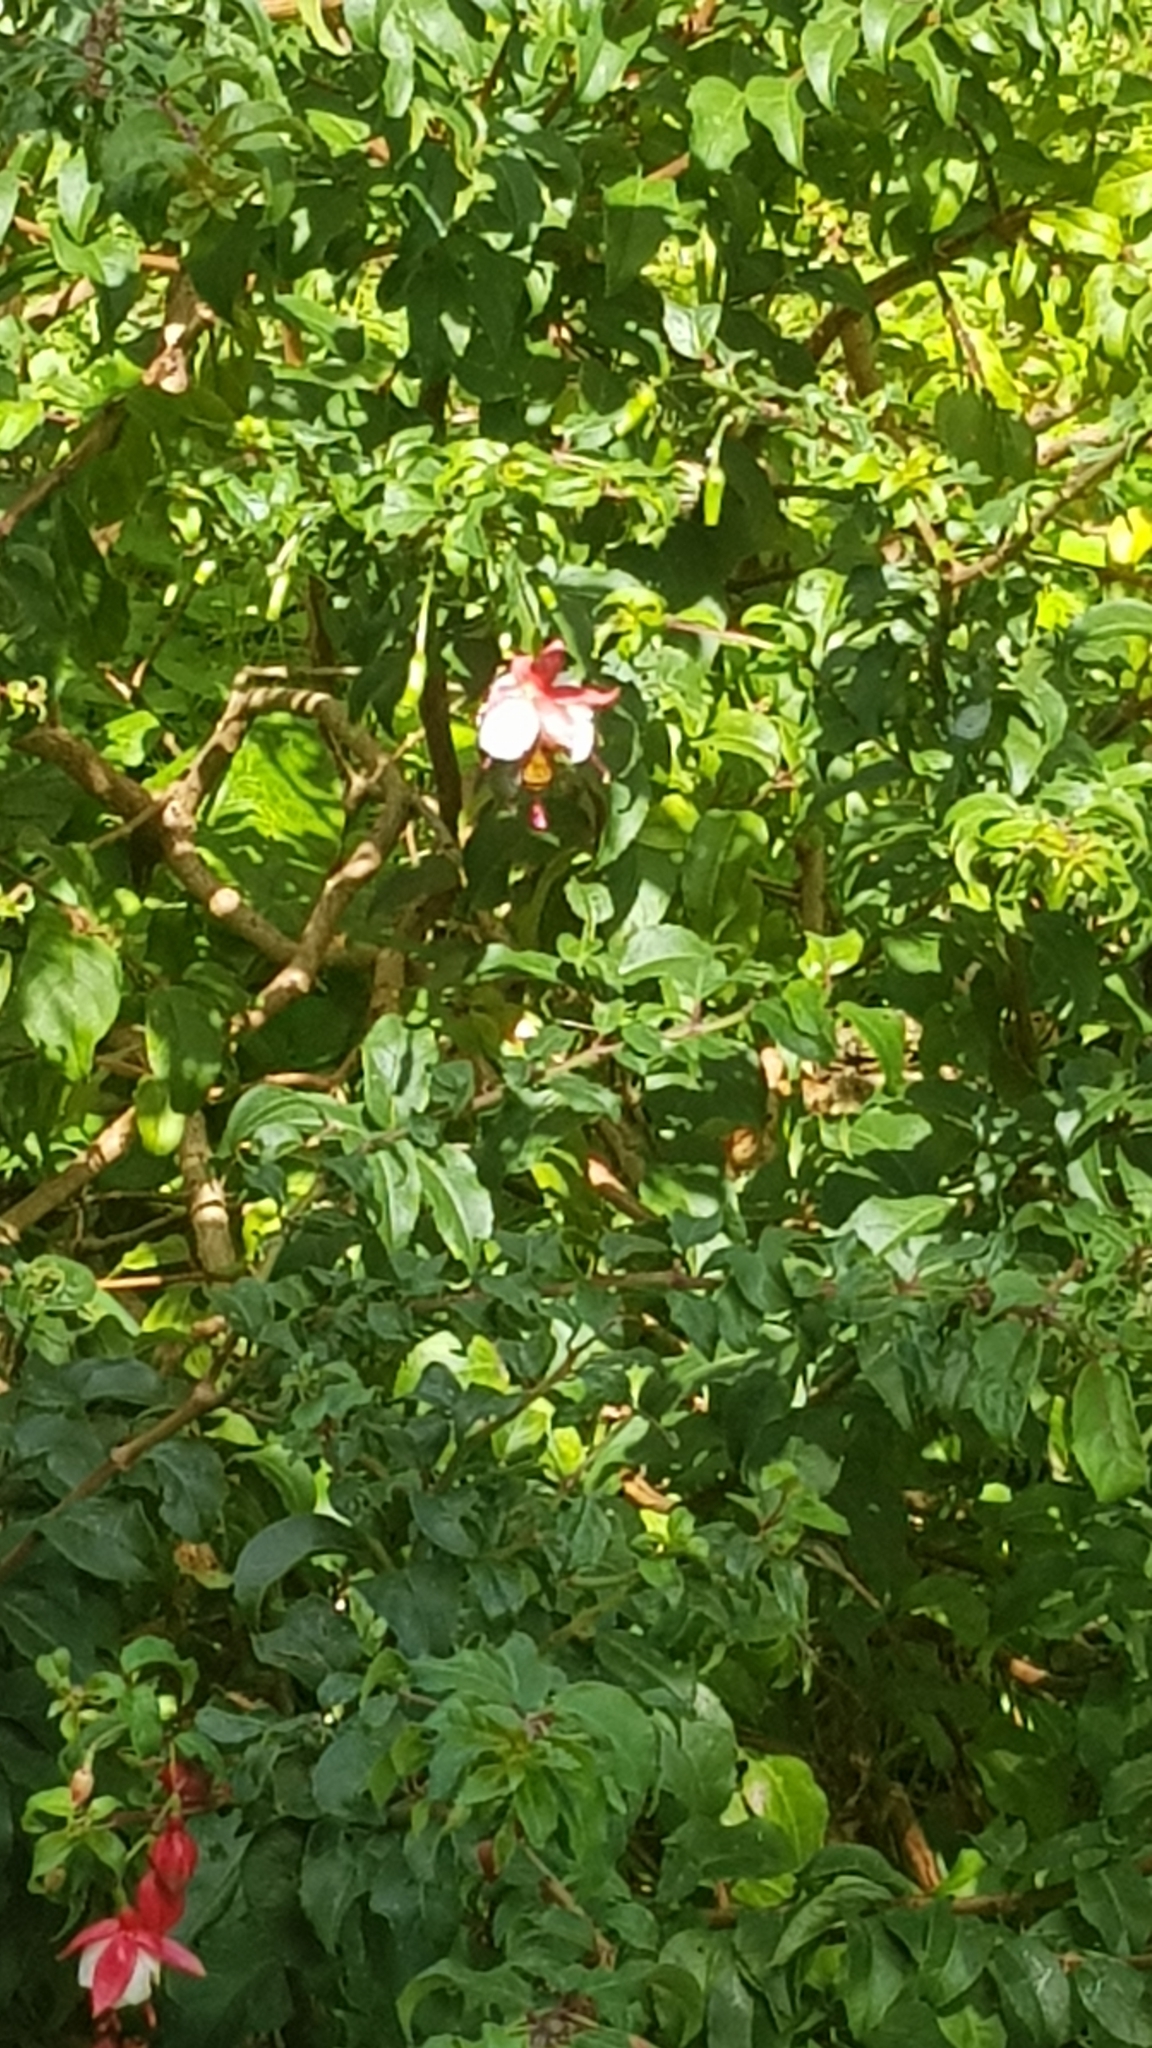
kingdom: Animalia
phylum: Arthropoda
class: Insecta
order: Hymenoptera
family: Apidae
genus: Amegilla
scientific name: Amegilla bombiformis
